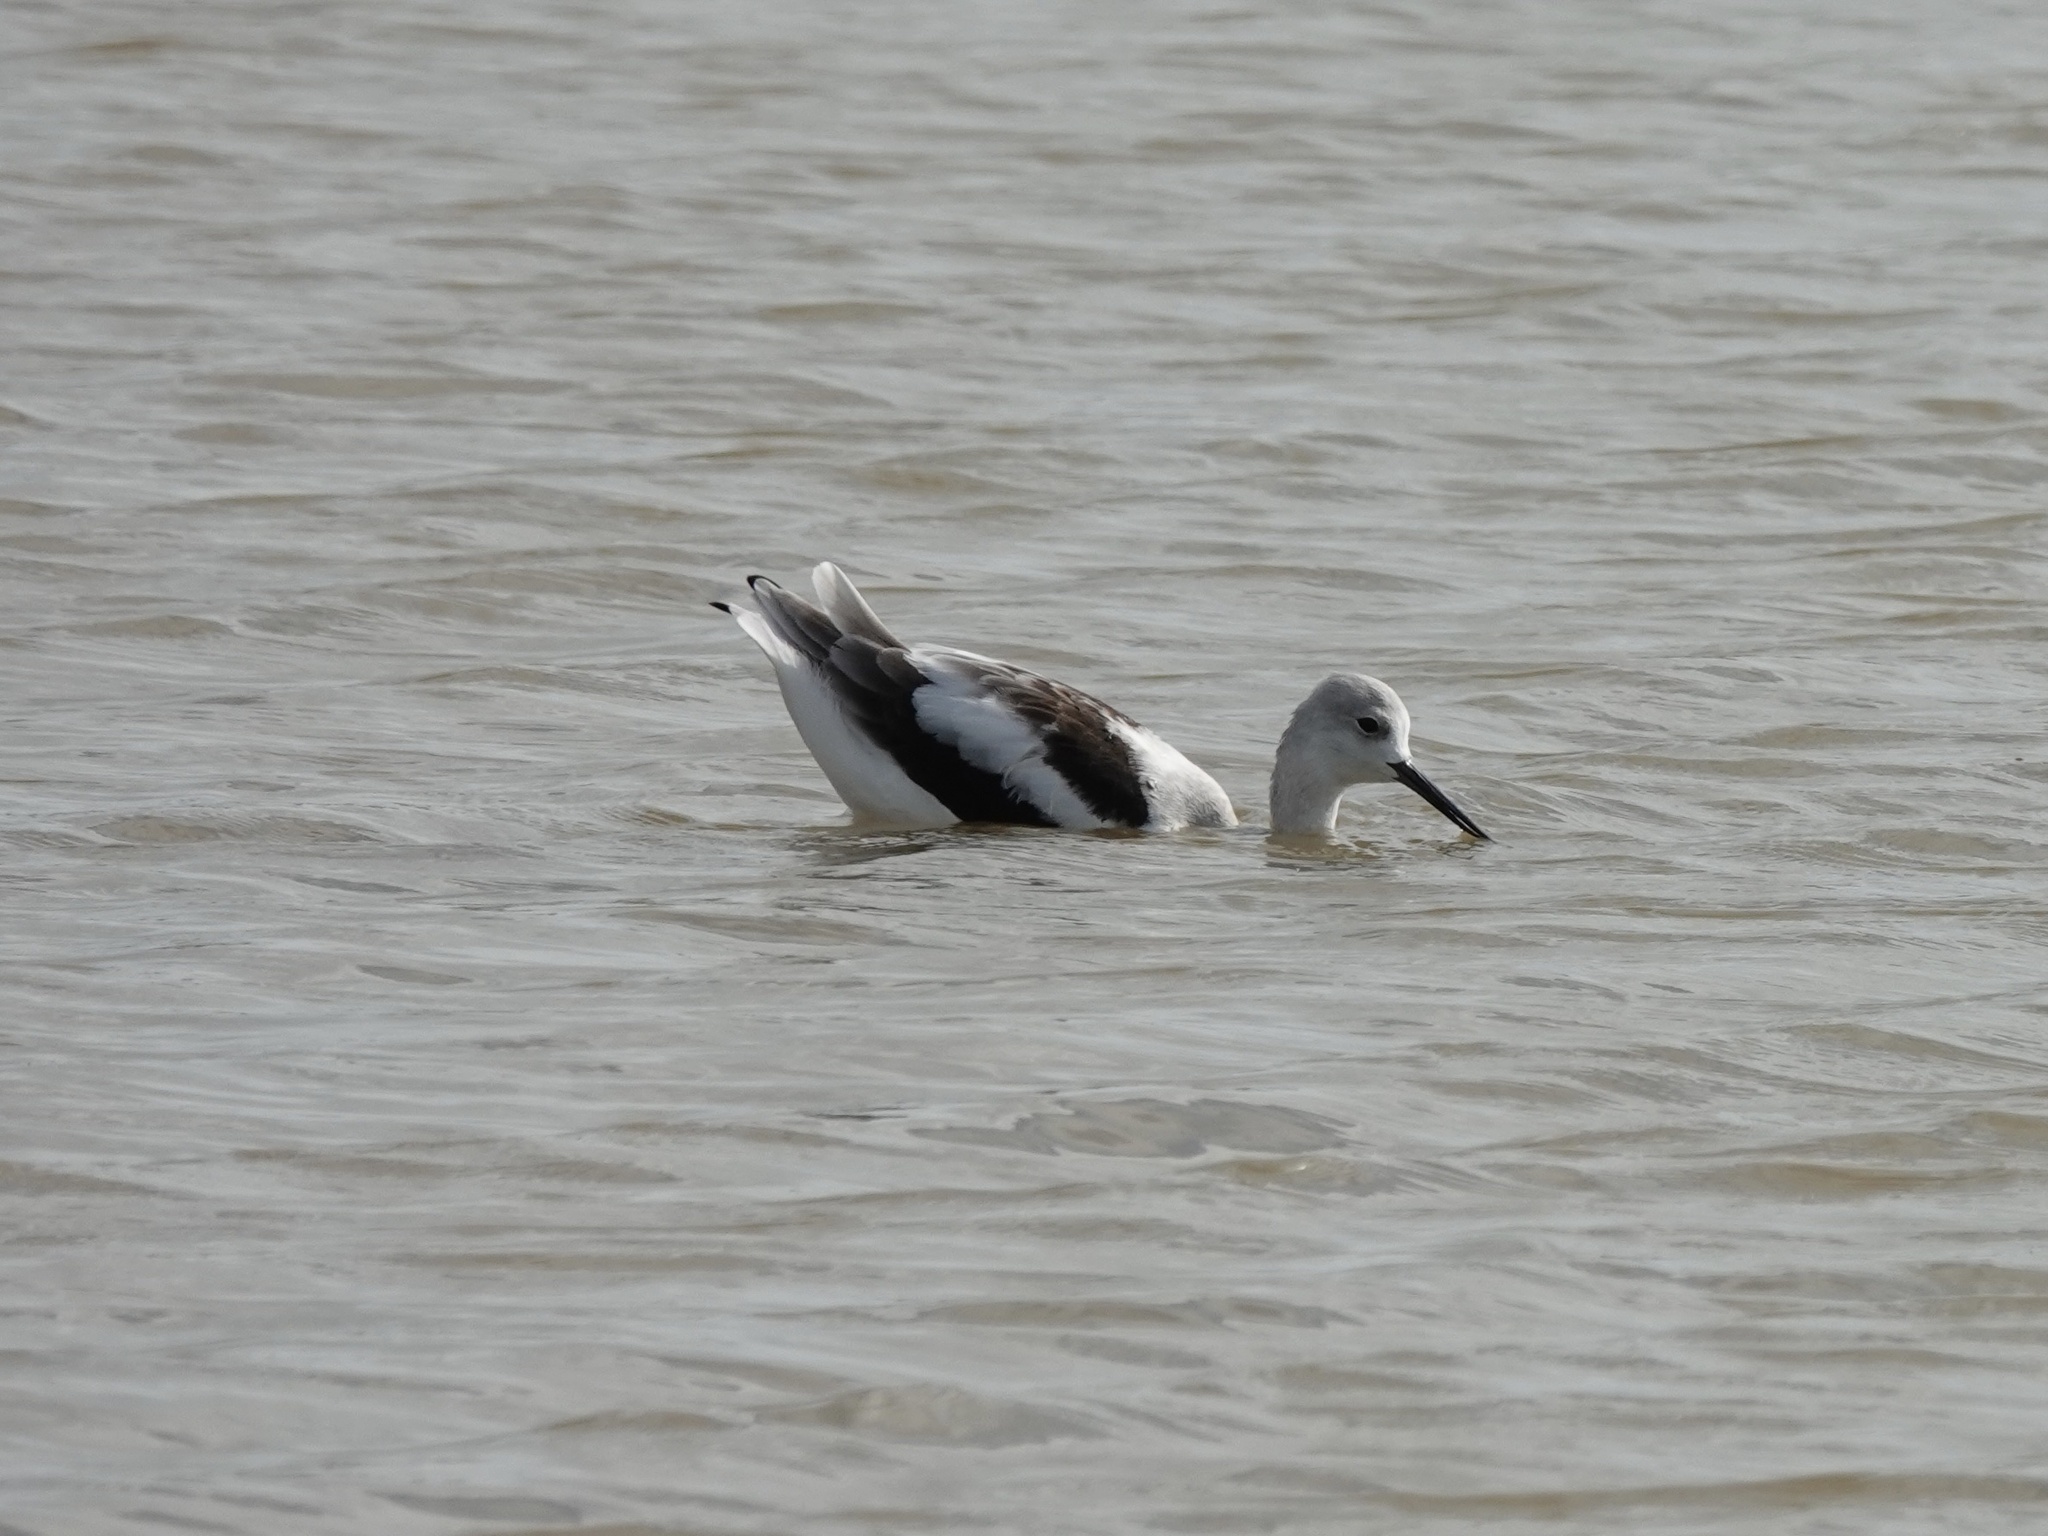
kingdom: Animalia
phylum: Chordata
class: Aves
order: Charadriiformes
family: Recurvirostridae
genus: Recurvirostra
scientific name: Recurvirostra americana
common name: American avocet
